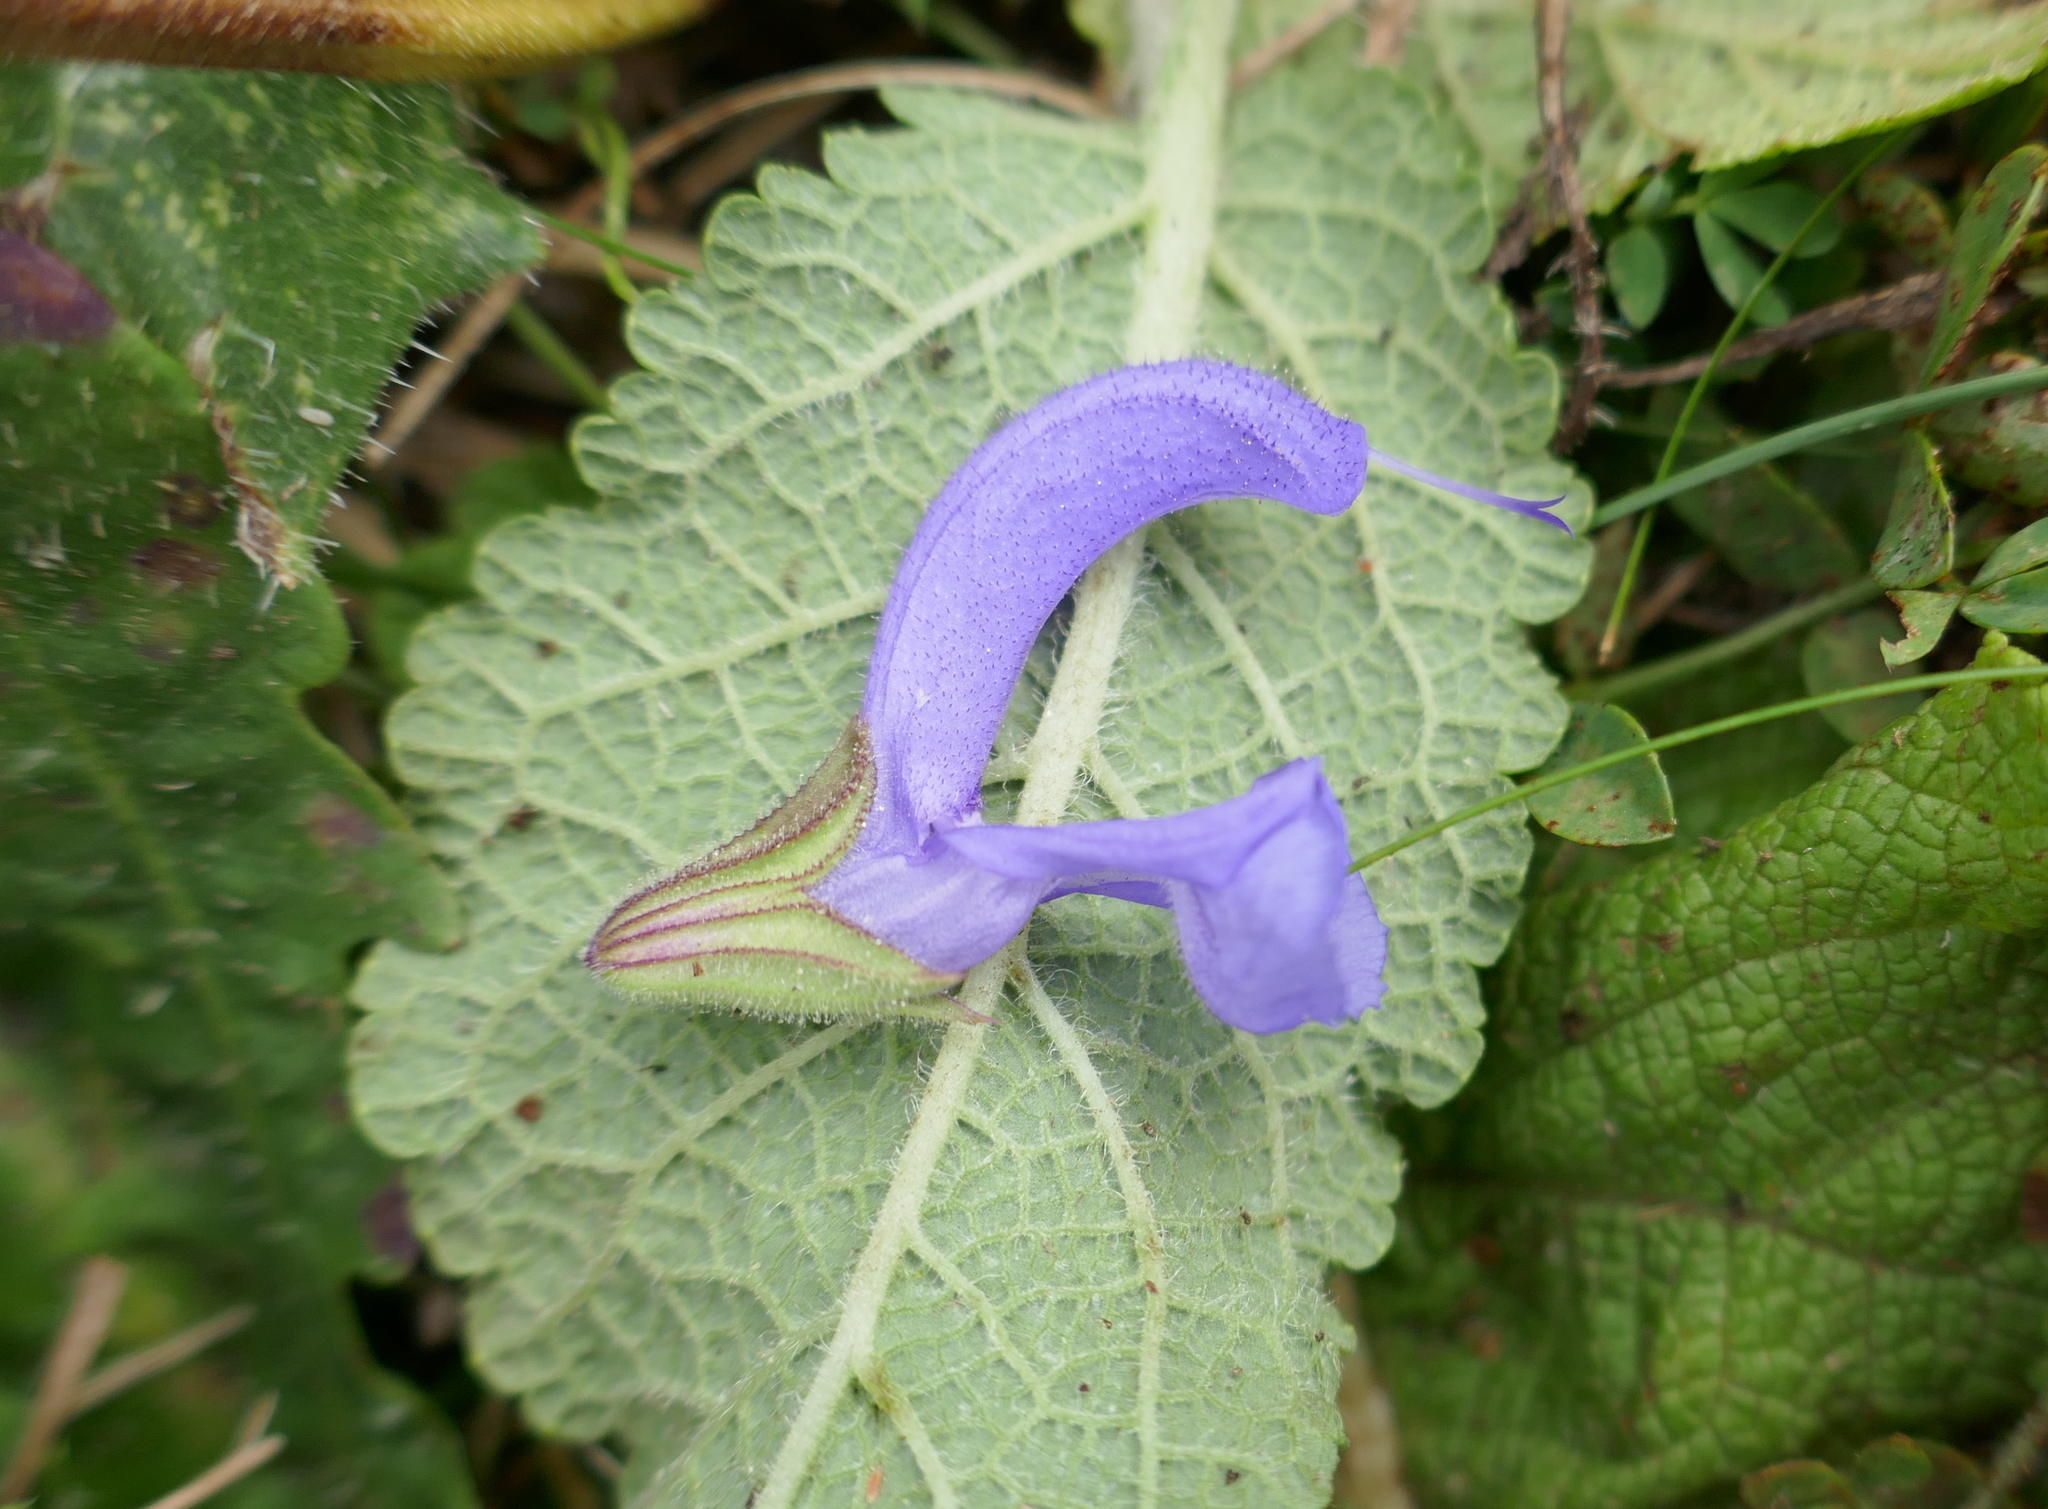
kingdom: Plantae
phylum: Tracheophyta
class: Magnoliopsida
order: Lamiales
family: Lamiaceae
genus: Salvia
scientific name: Salvia pratensis
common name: Meadow sage
